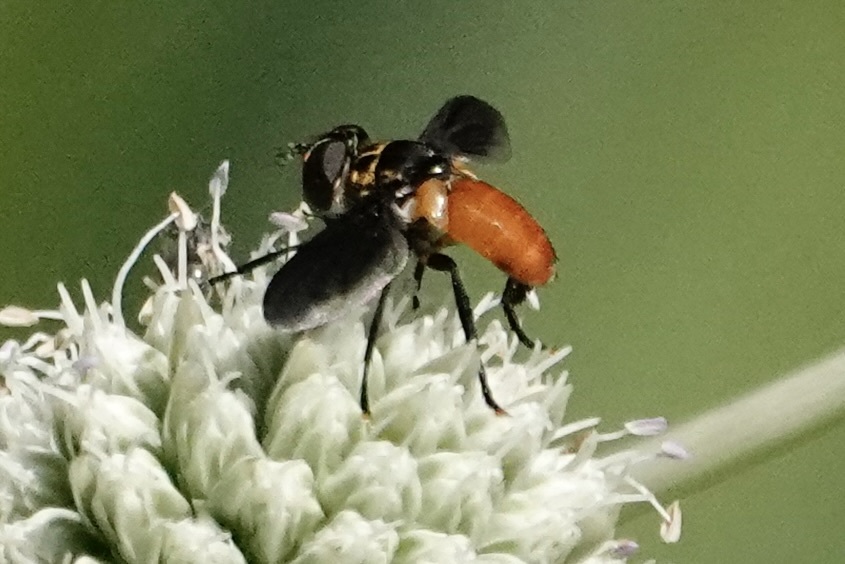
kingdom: Animalia
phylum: Arthropoda
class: Insecta
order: Diptera
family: Tachinidae
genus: Trichopoda
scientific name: Trichopoda pennipes
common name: Tachinid fly
